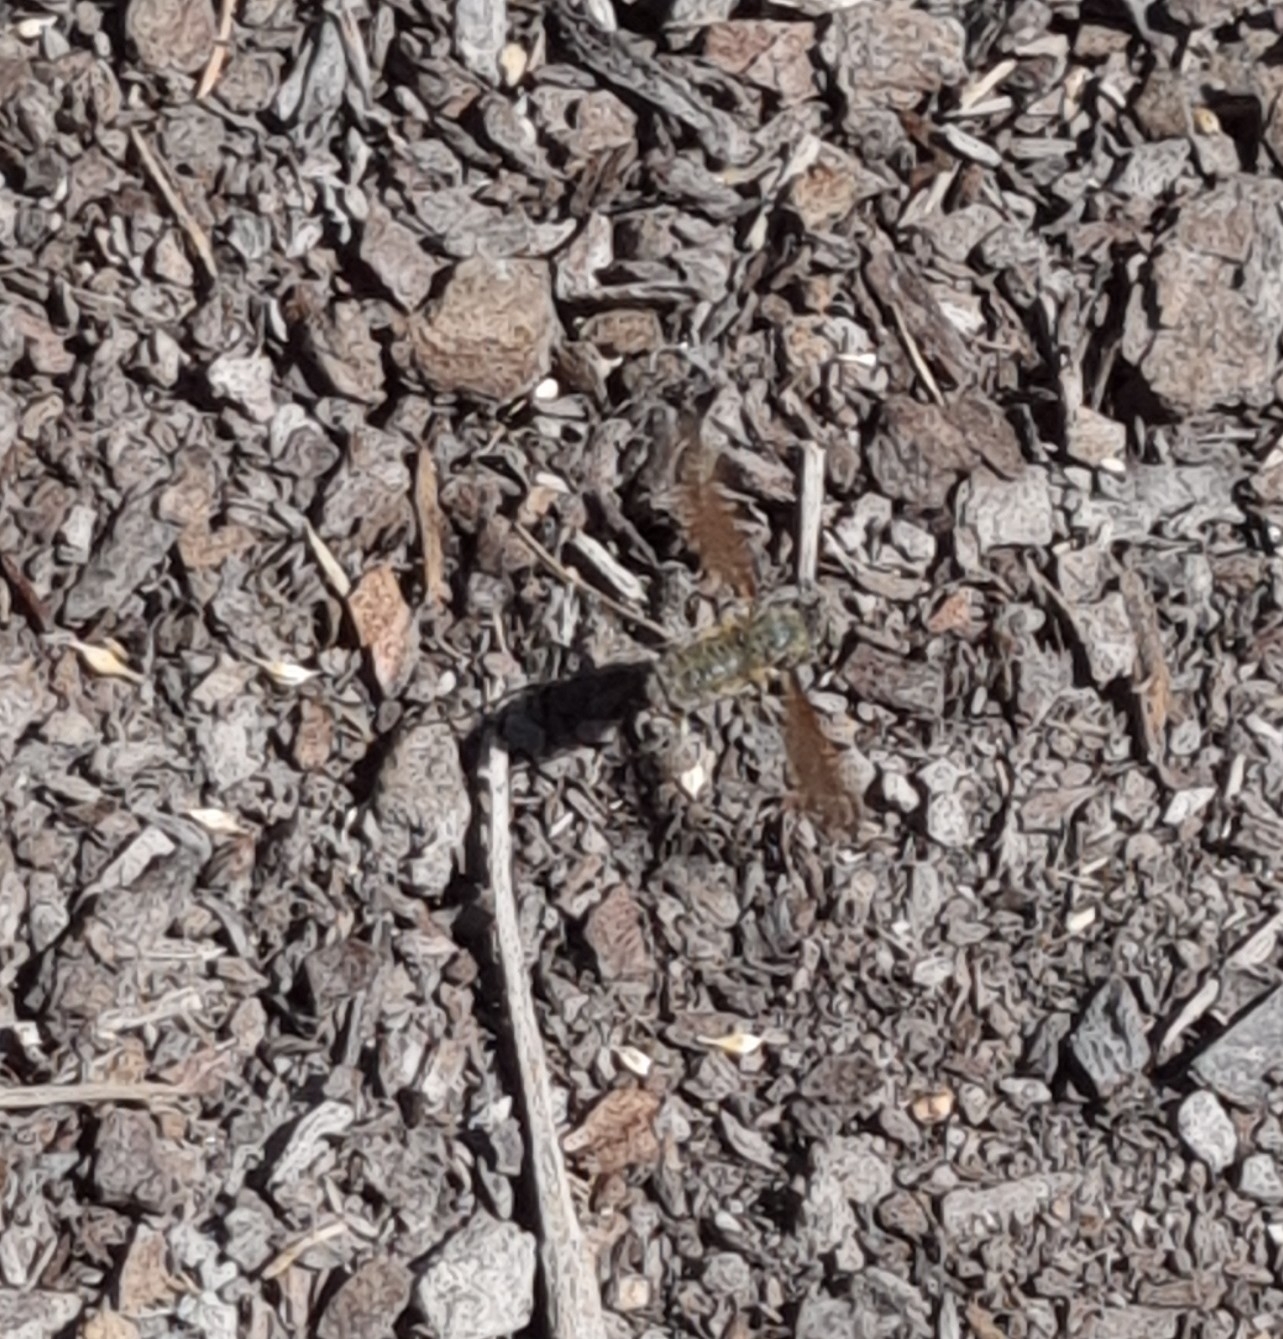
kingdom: Animalia
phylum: Arthropoda
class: Insecta
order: Diptera
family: Bombyliidae
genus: Comptosia
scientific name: Comptosia
